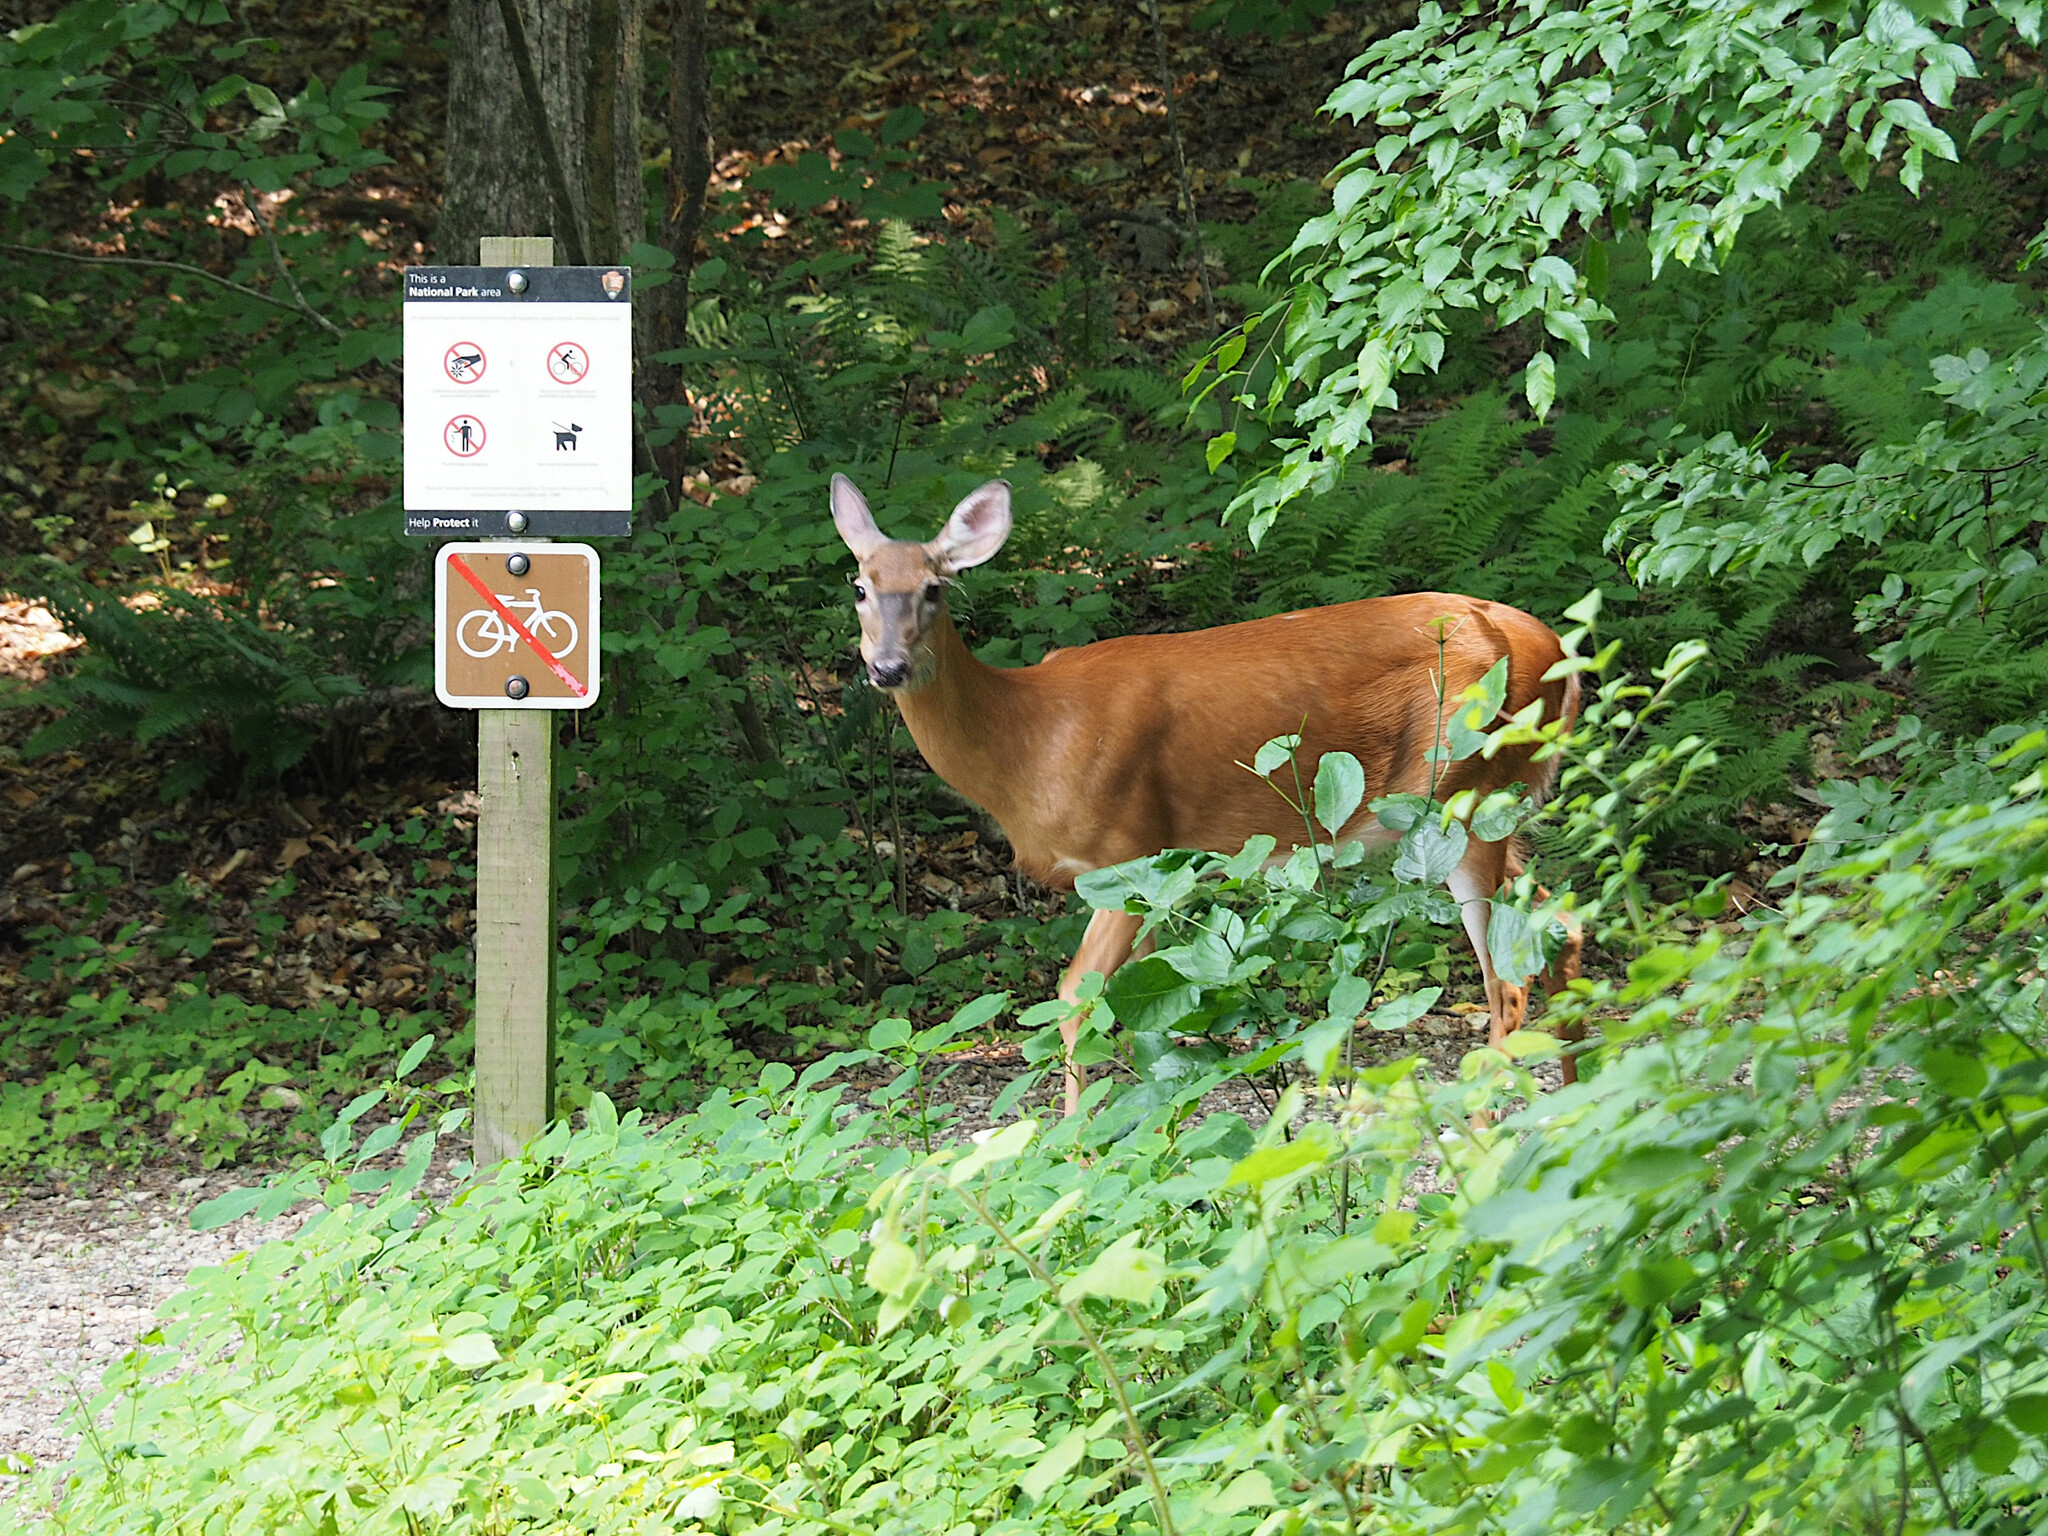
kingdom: Animalia
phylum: Chordata
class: Mammalia
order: Artiodactyla
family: Cervidae
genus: Odocoileus
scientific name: Odocoileus virginianus
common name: White-tailed deer
